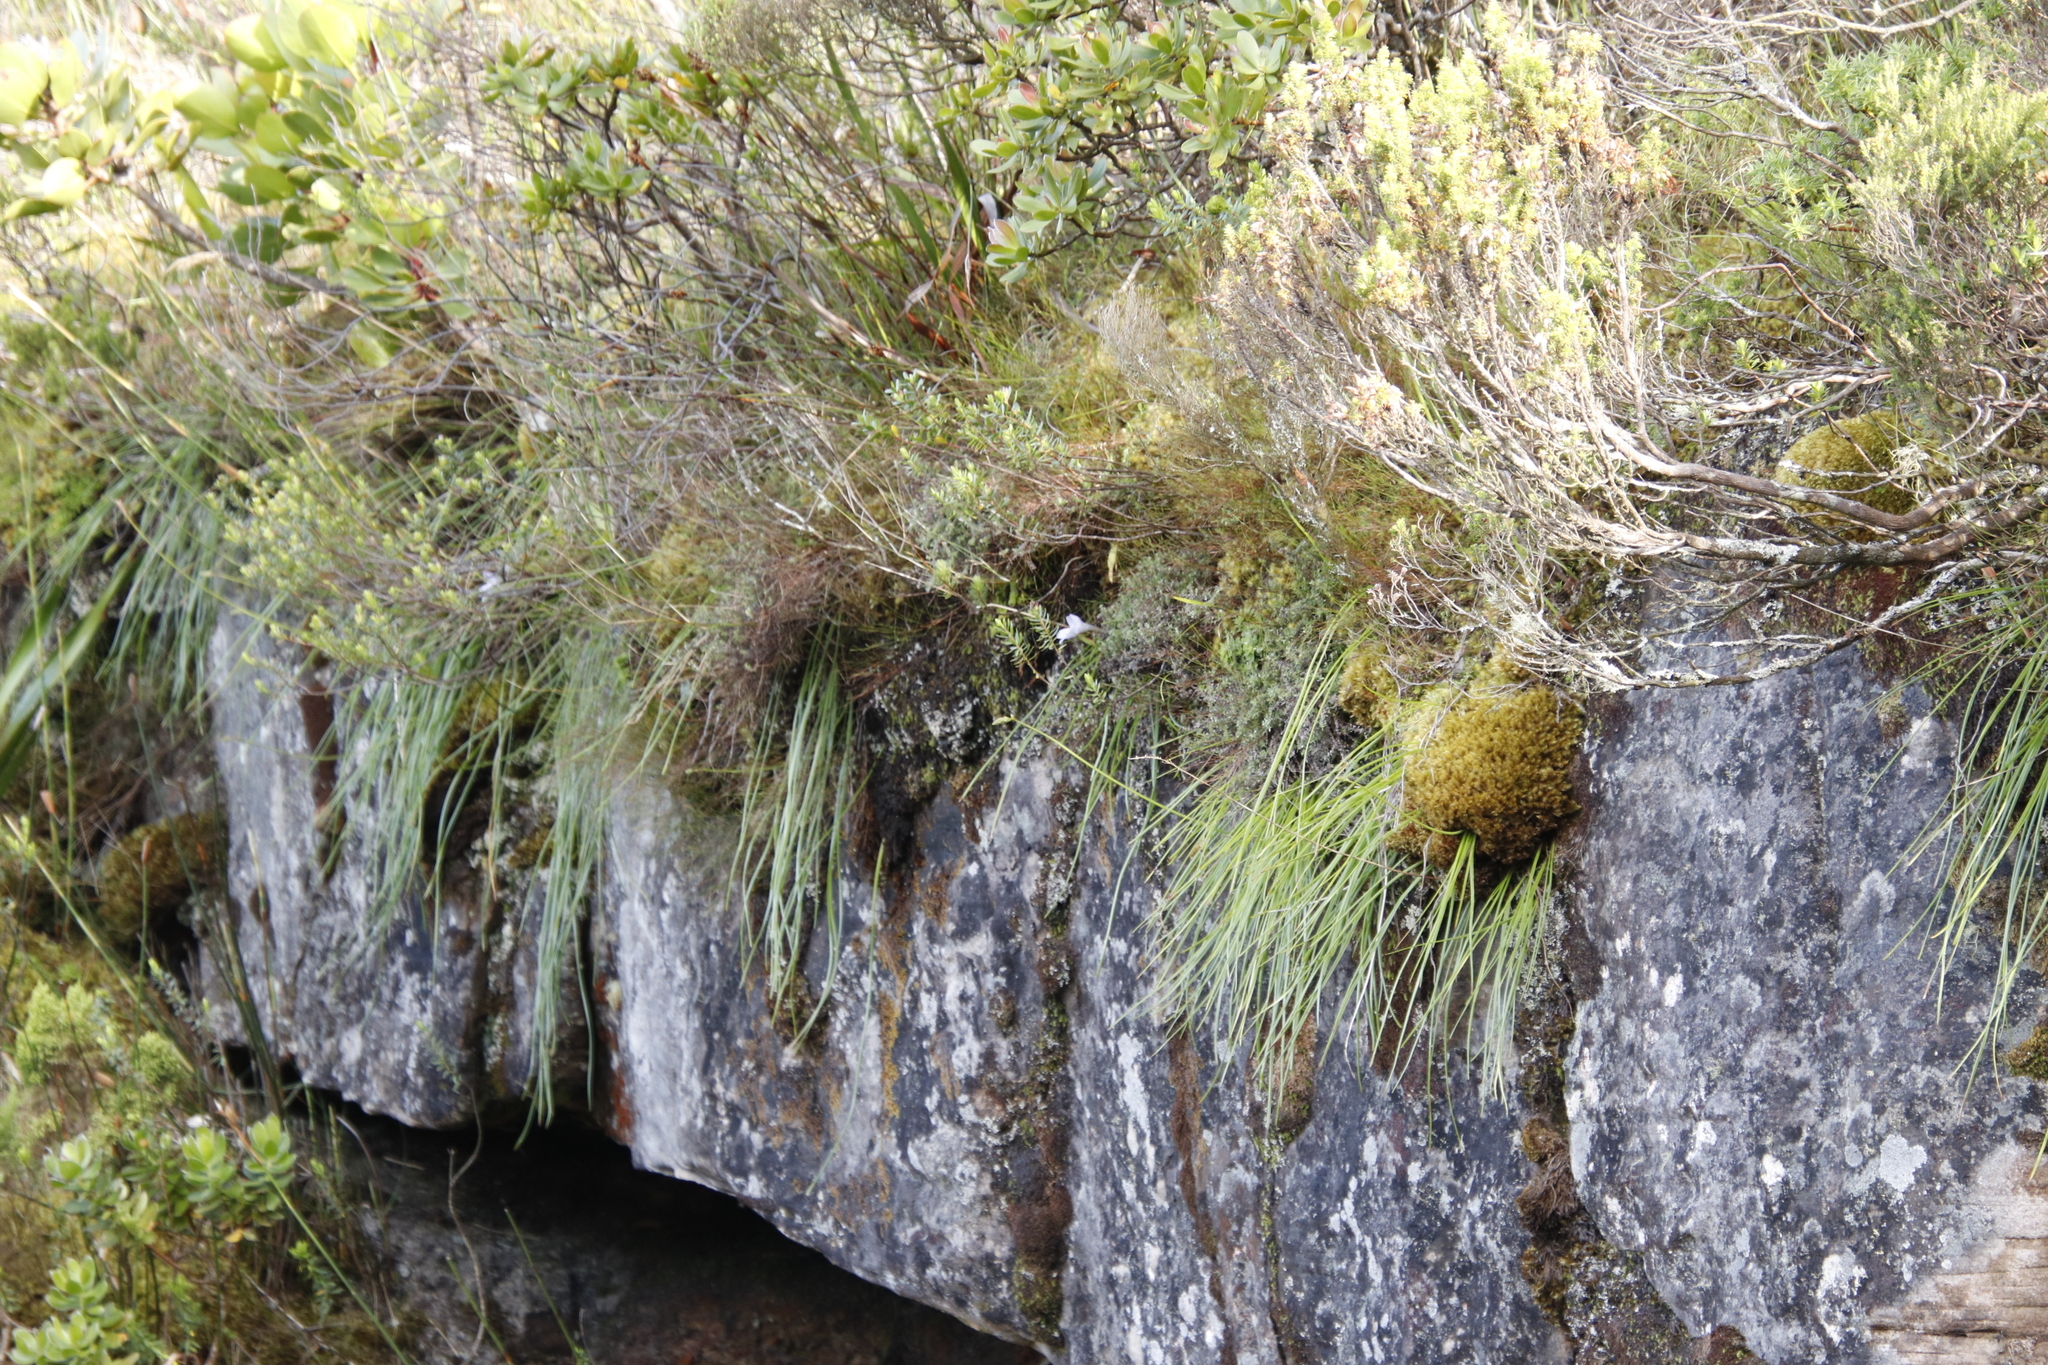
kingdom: Plantae
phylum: Tracheophyta
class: Liliopsida
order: Asparagales
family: Orchidaceae
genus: Disa
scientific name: Disa longicornu
